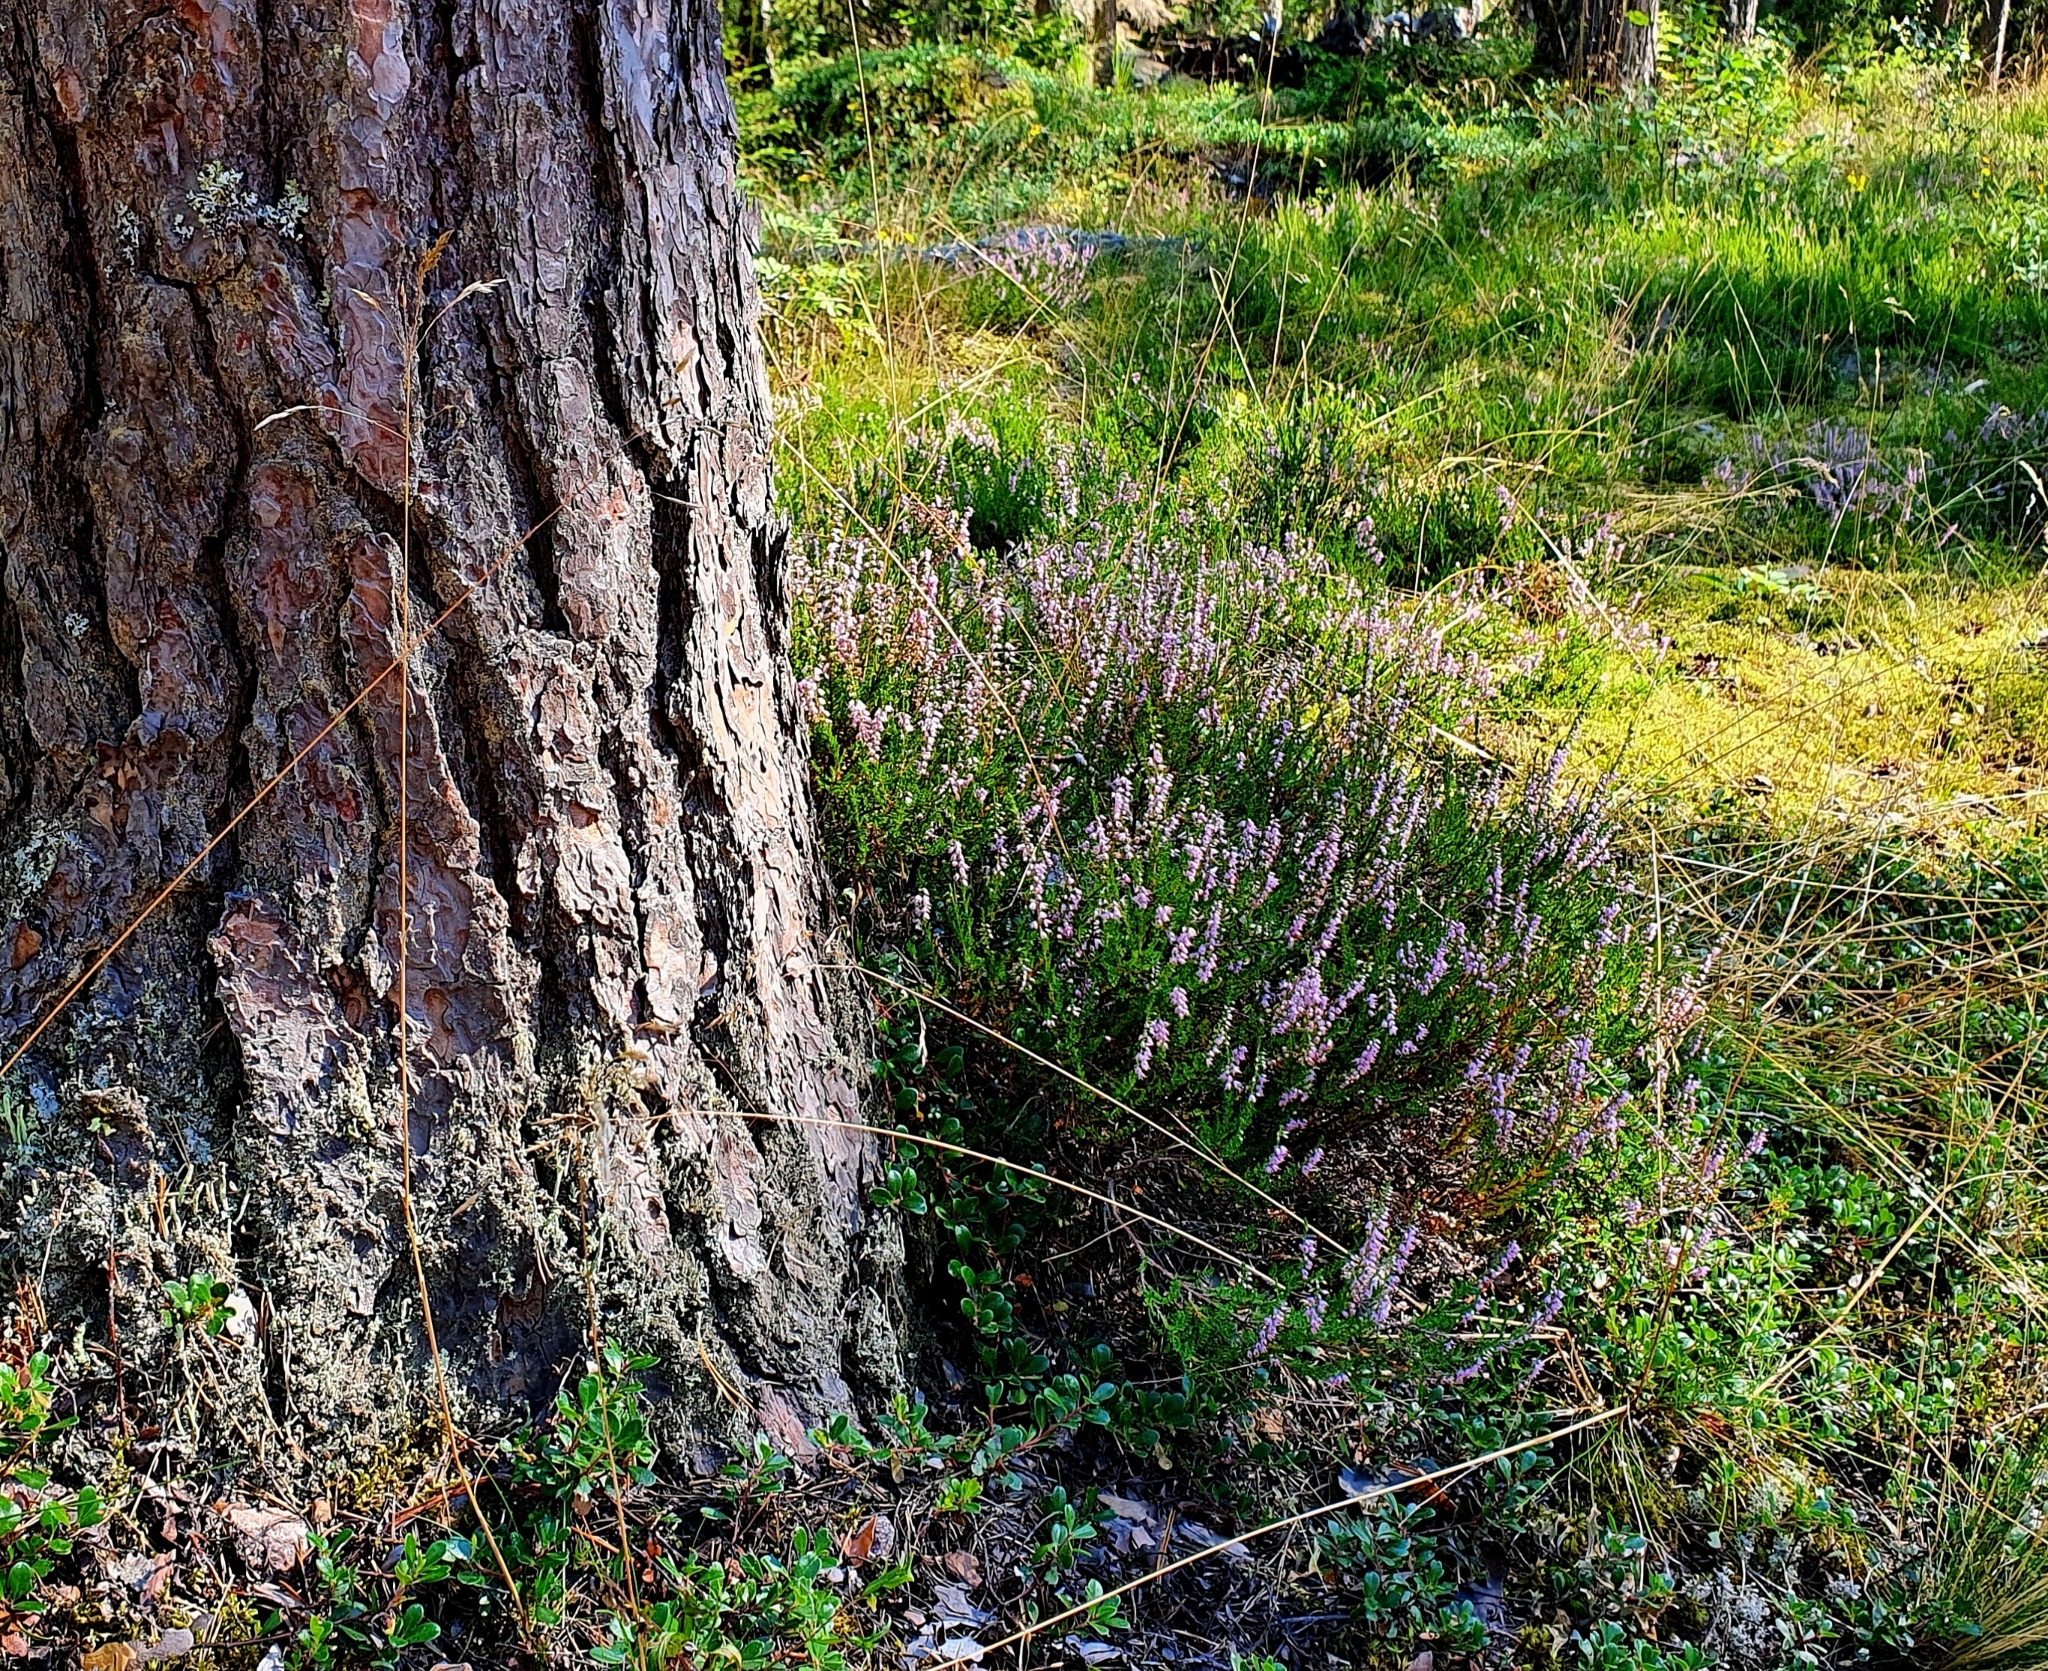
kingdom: Plantae
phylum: Tracheophyta
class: Magnoliopsida
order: Ericales
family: Ericaceae
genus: Calluna
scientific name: Calluna vulgaris
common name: Heather
